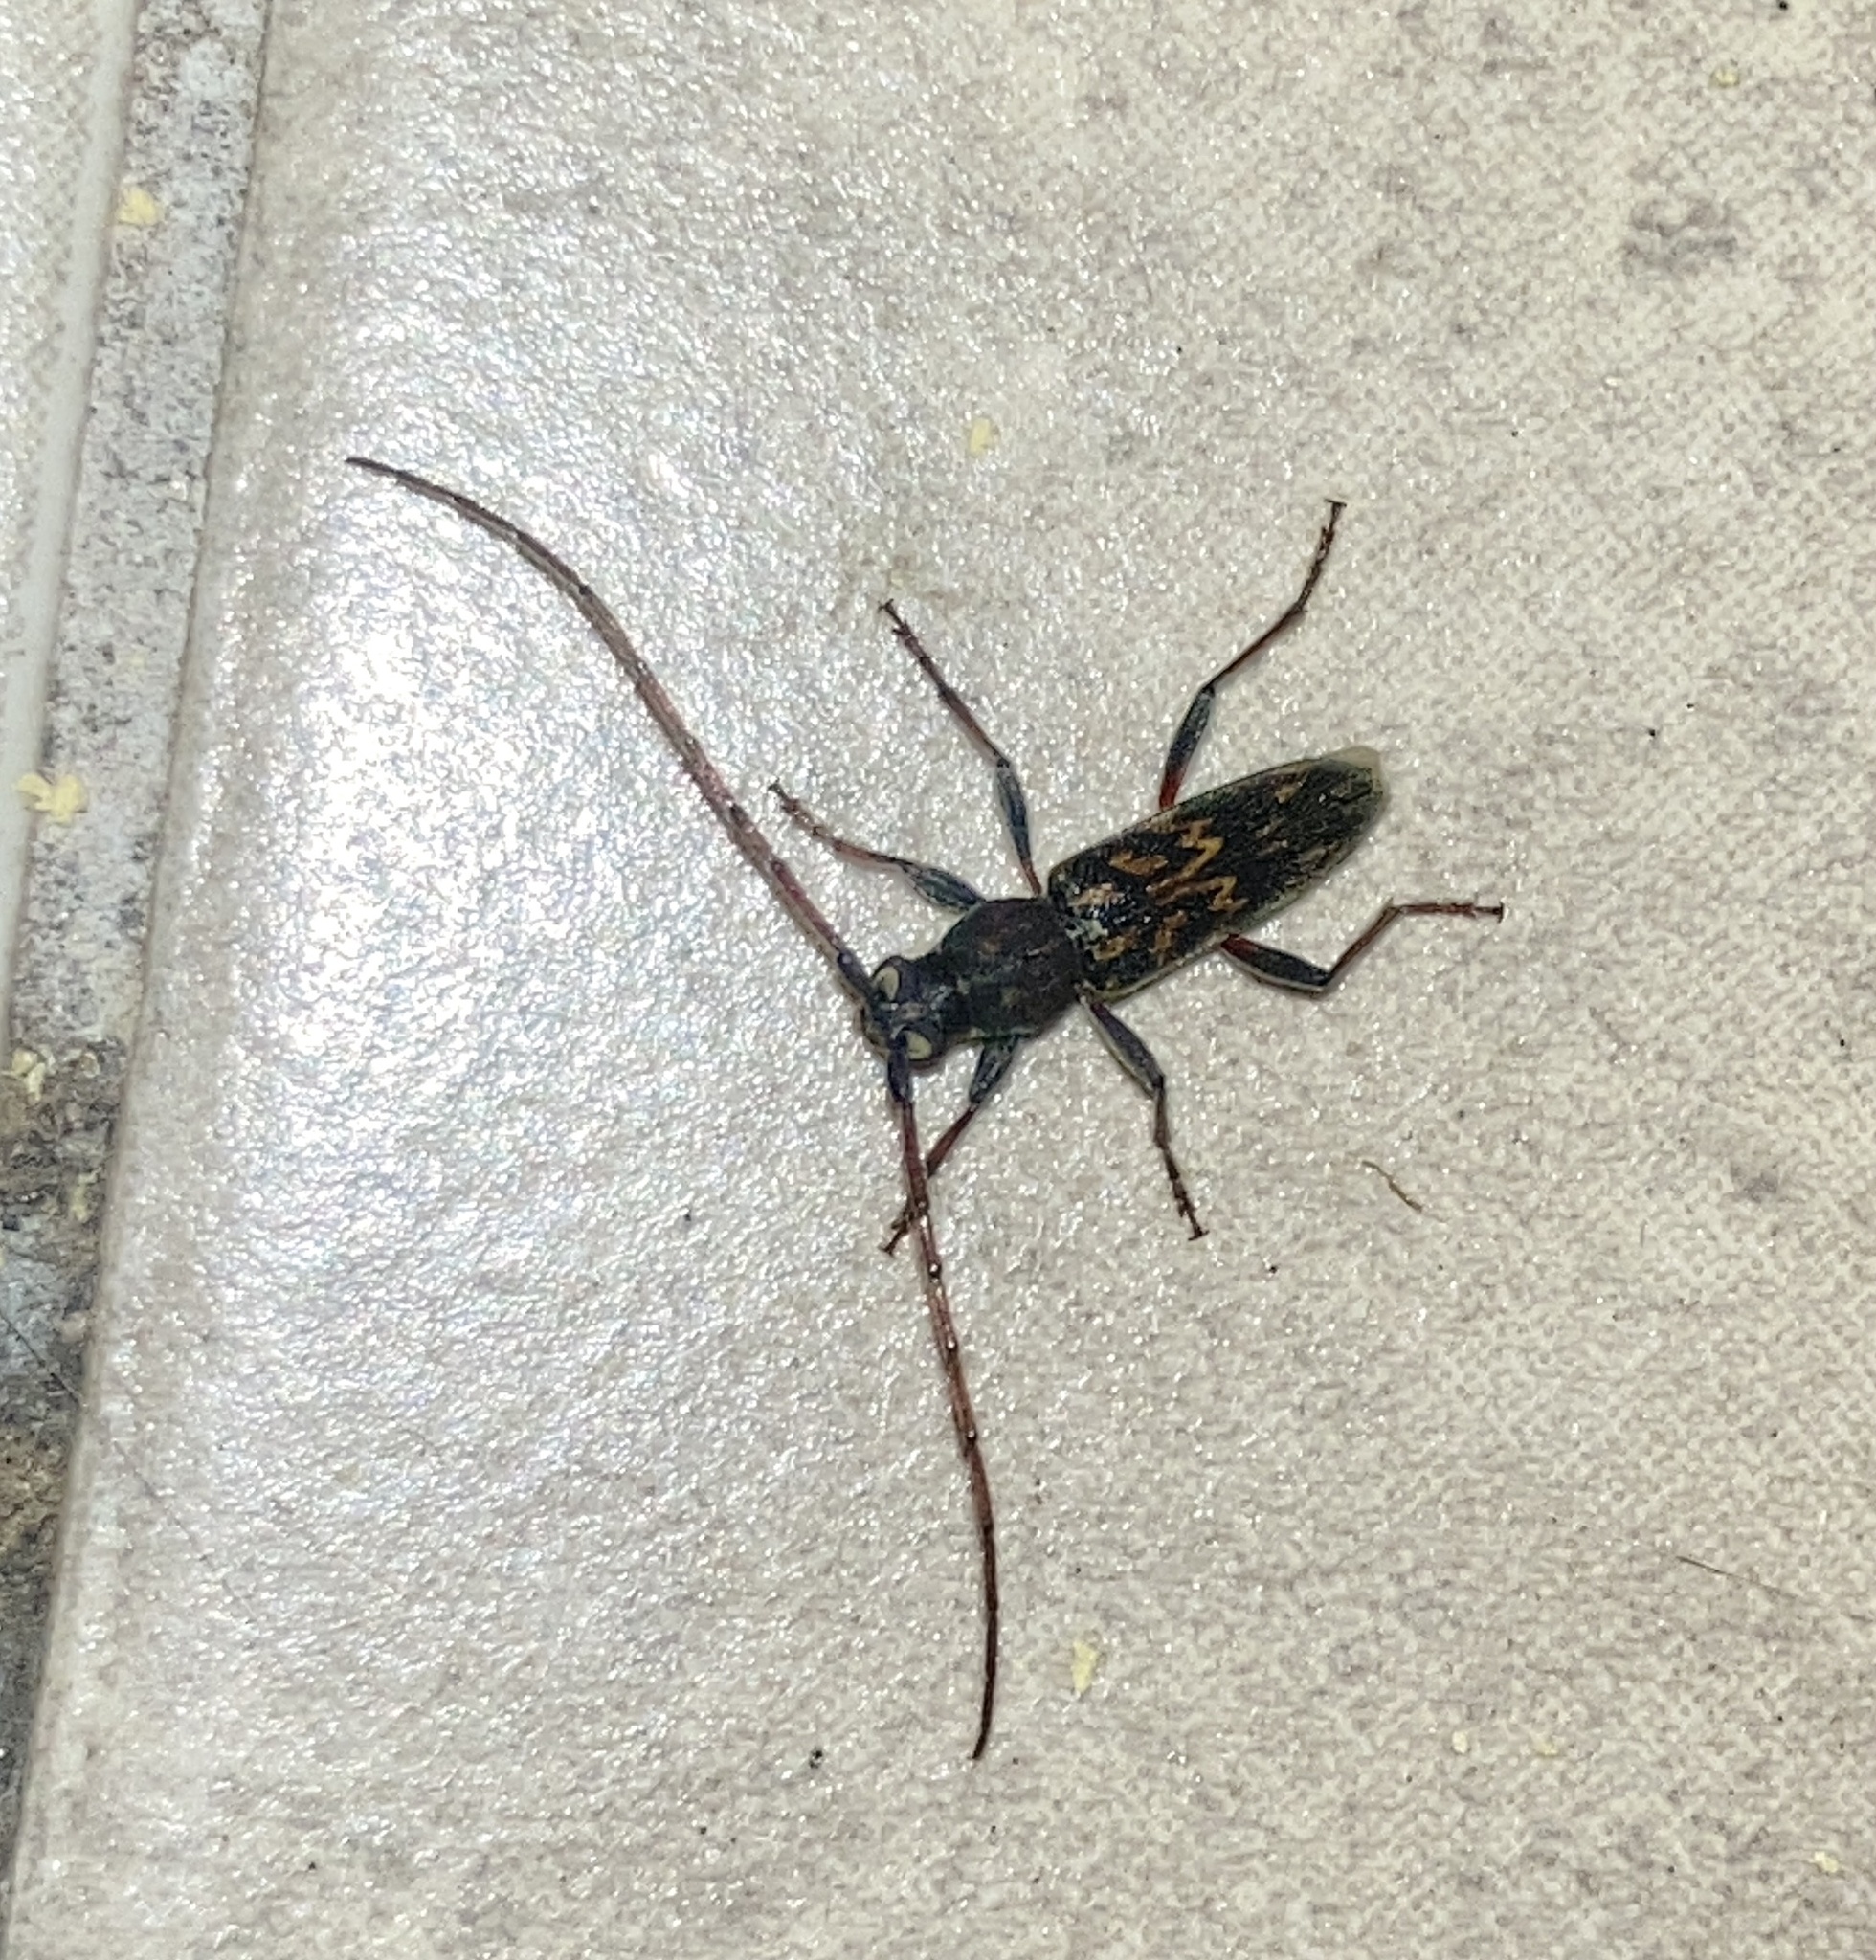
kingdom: Animalia
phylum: Arthropoda
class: Insecta
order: Coleoptera
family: Cerambycidae
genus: Achryson
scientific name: Achryson undulatum
